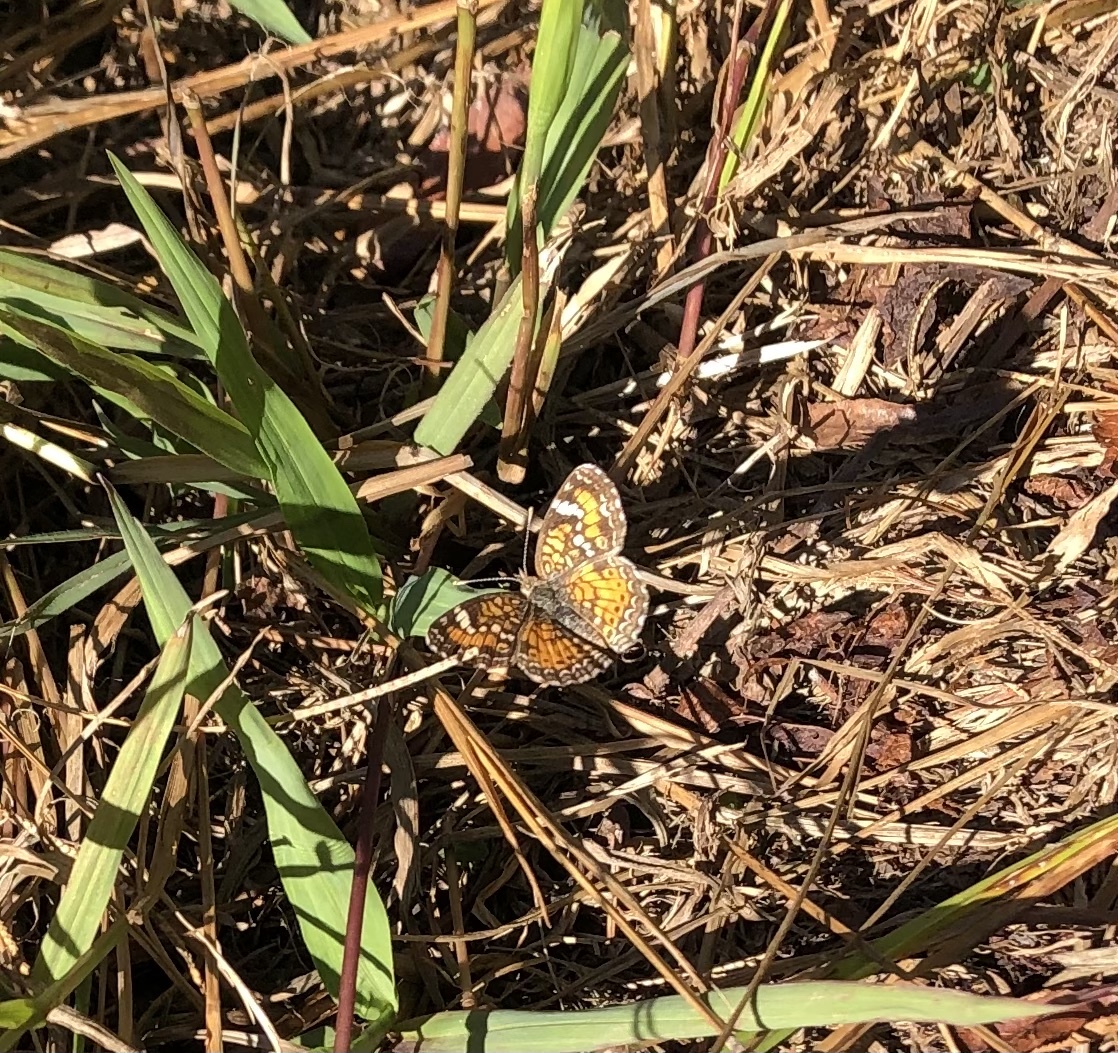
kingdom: Animalia
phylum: Arthropoda
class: Insecta
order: Lepidoptera
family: Nymphalidae
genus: Phyciodes
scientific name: Phyciodes phaon
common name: Phaon crescent
